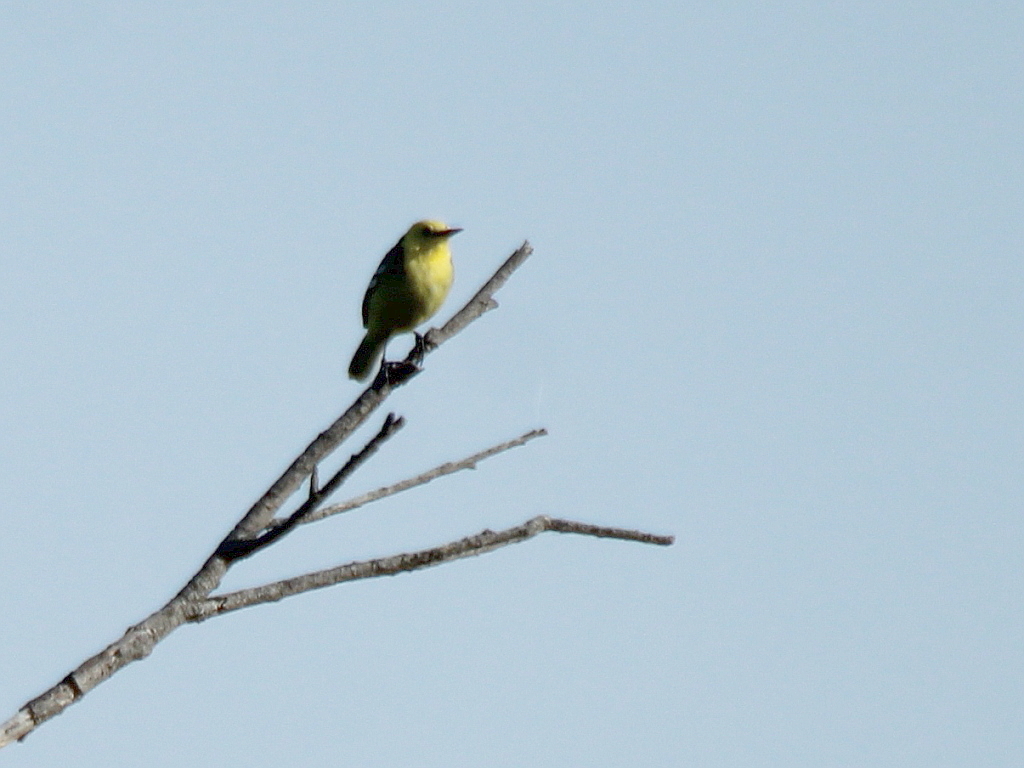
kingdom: Animalia
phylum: Chordata
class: Aves
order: Passeriformes
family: Motacillidae
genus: Motacilla
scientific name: Motacilla citreola
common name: Citrine wagtail
